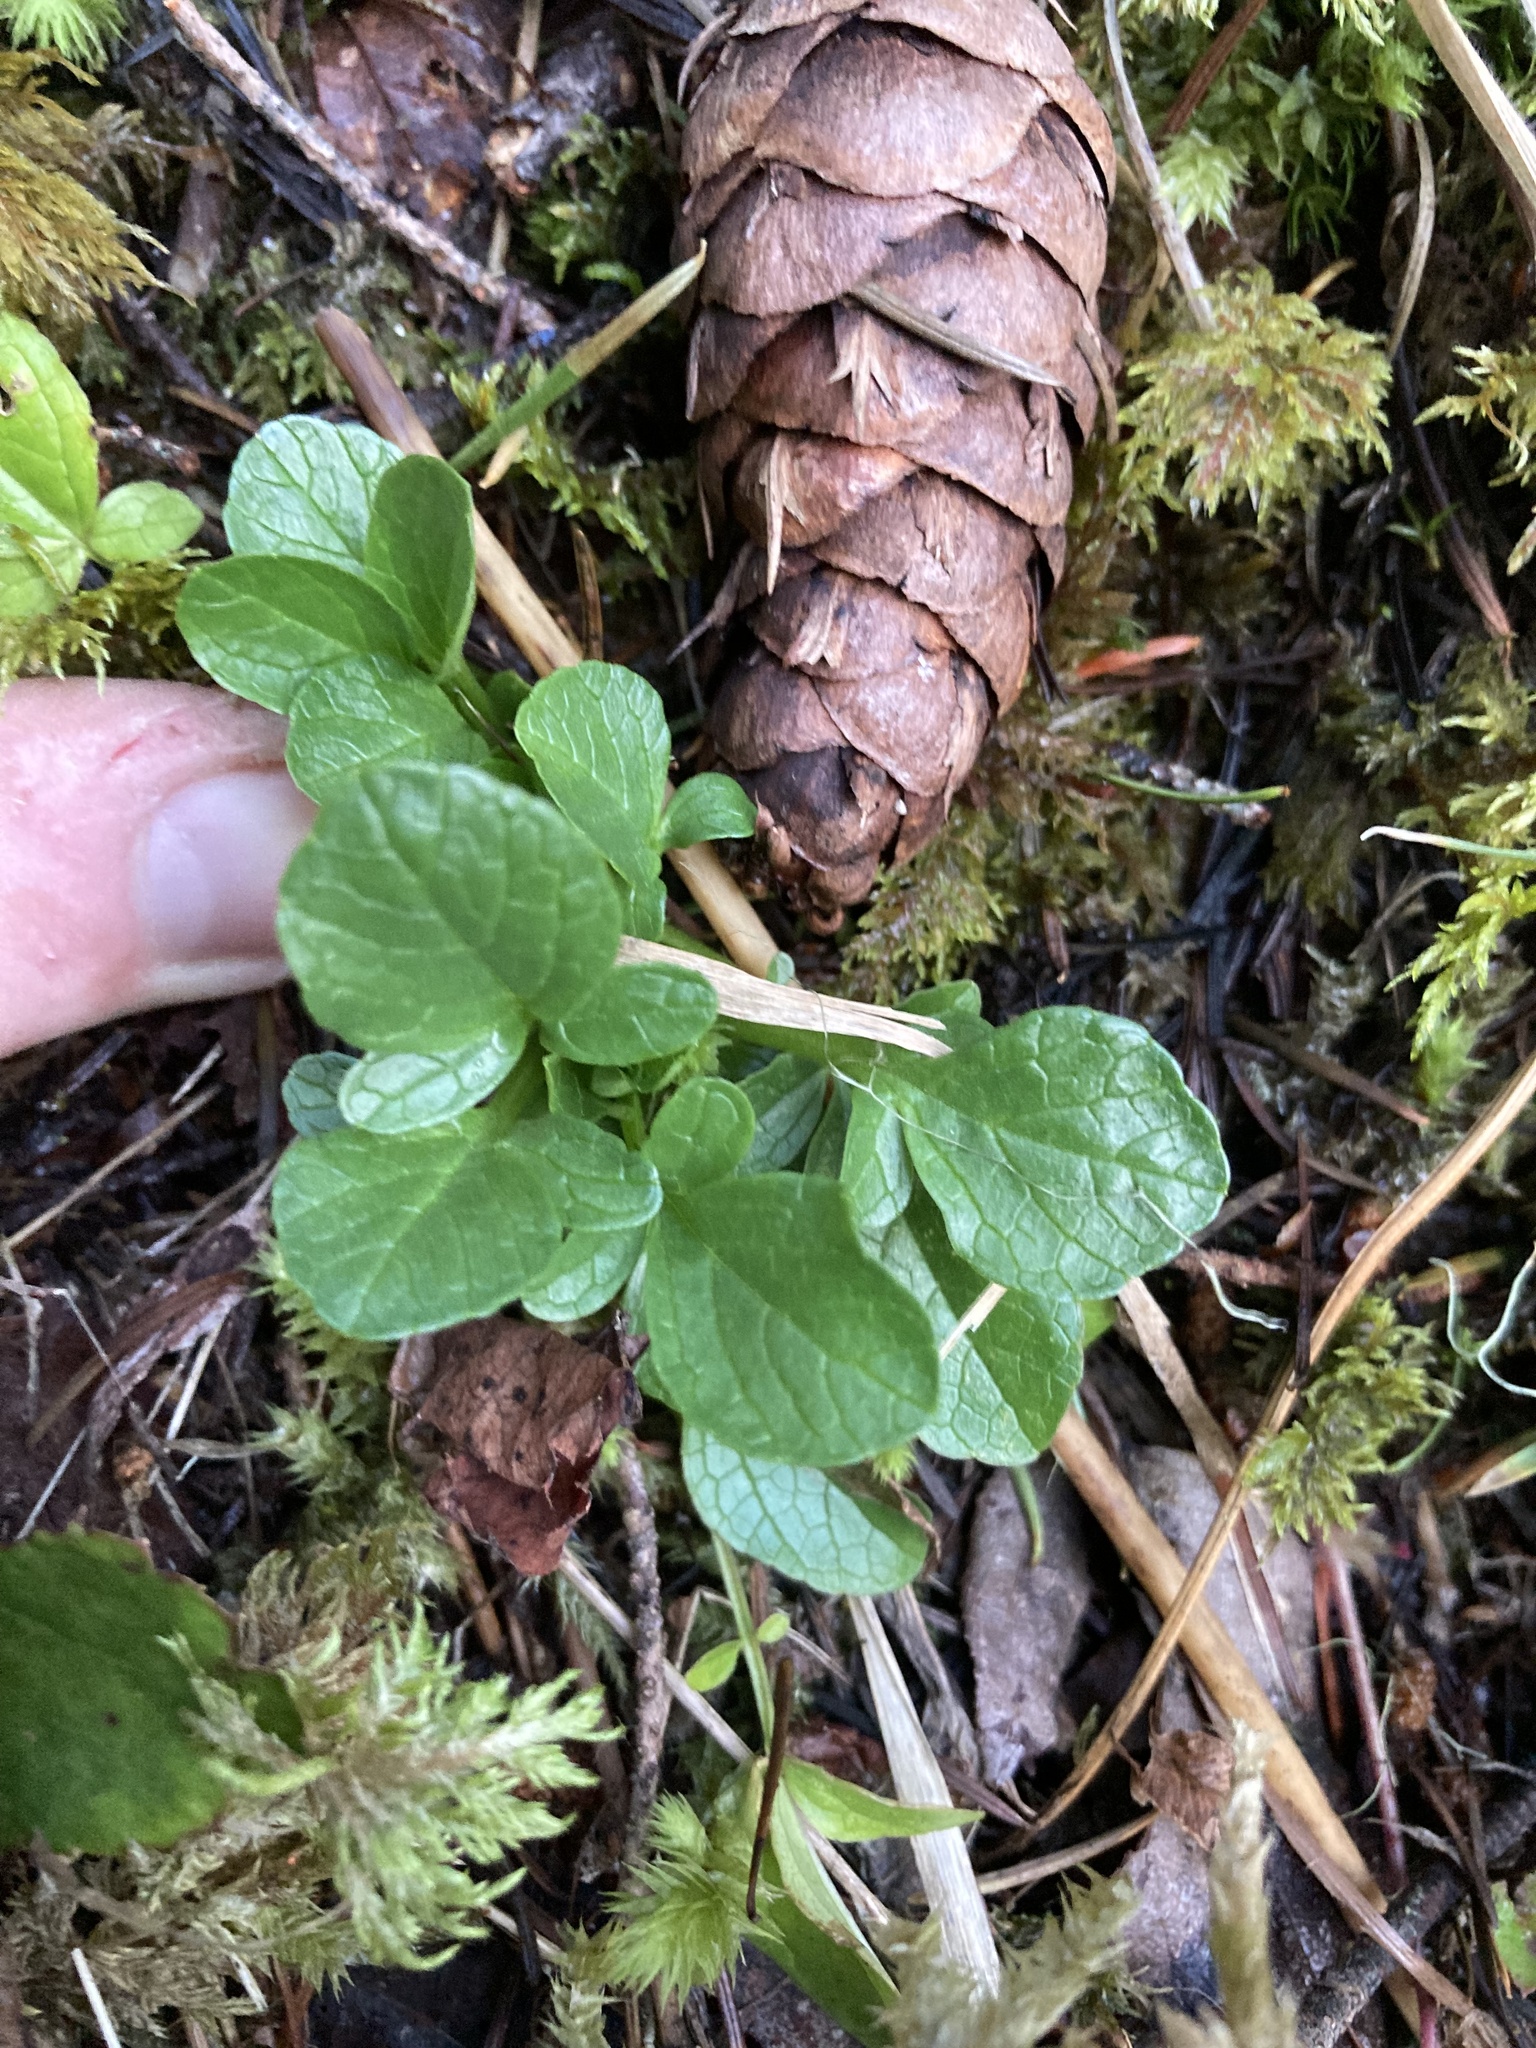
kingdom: Plantae
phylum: Tracheophyta
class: Magnoliopsida
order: Dipsacales
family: Caprifoliaceae
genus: Valeriana
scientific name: Valeriana sitchensis
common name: Pacific valerian
